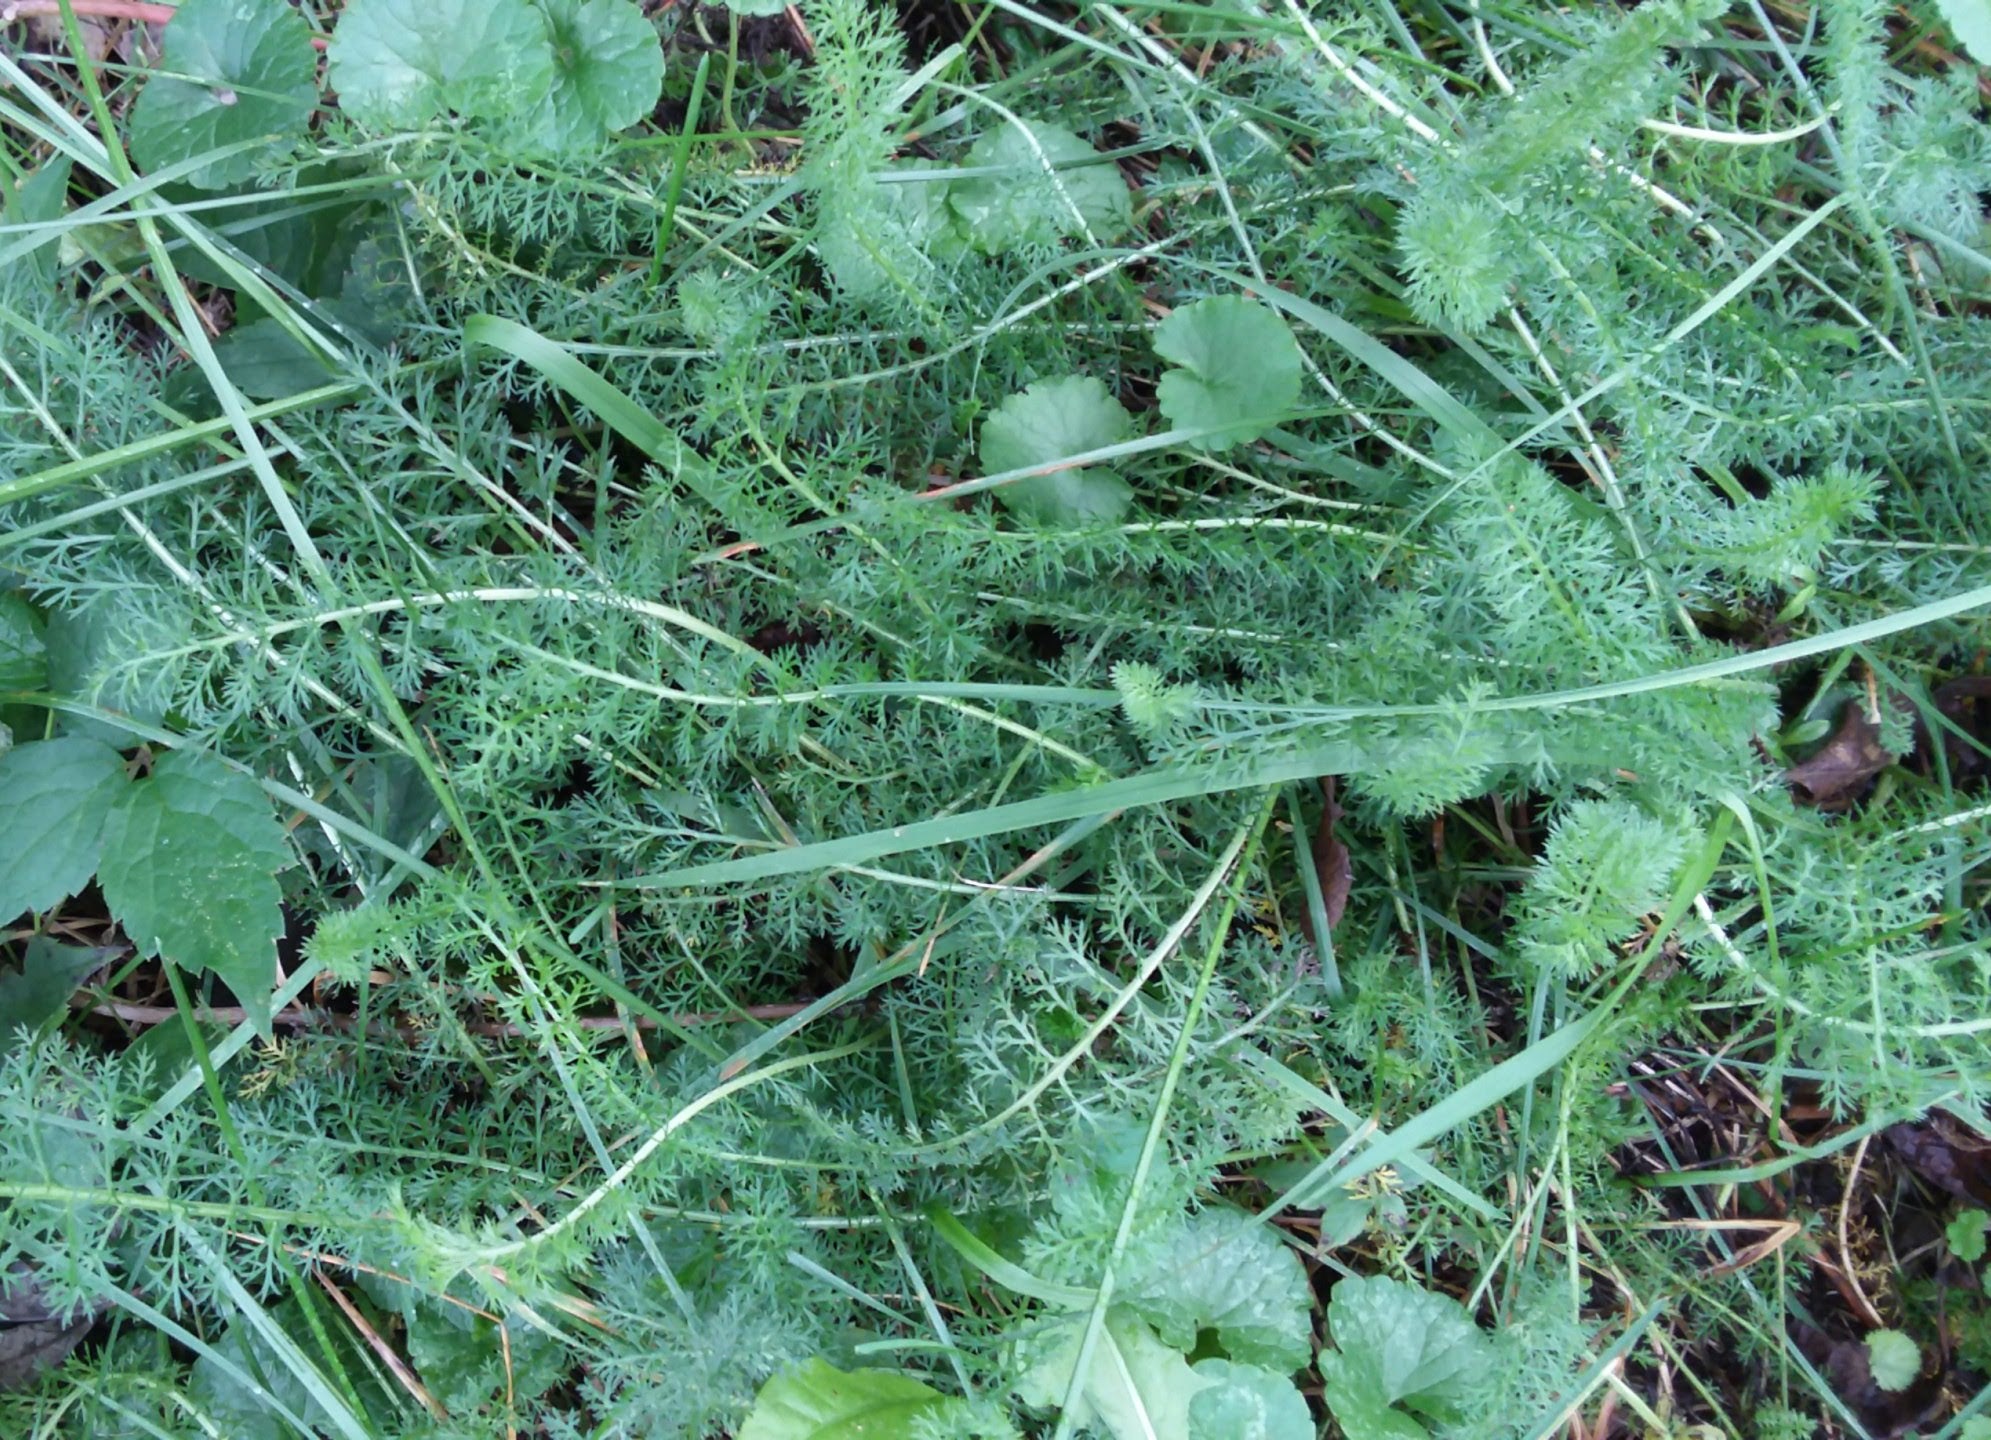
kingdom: Plantae
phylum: Tracheophyta
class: Magnoliopsida
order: Asterales
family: Asteraceae
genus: Achillea
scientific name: Achillea millefolium
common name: Yarrow
